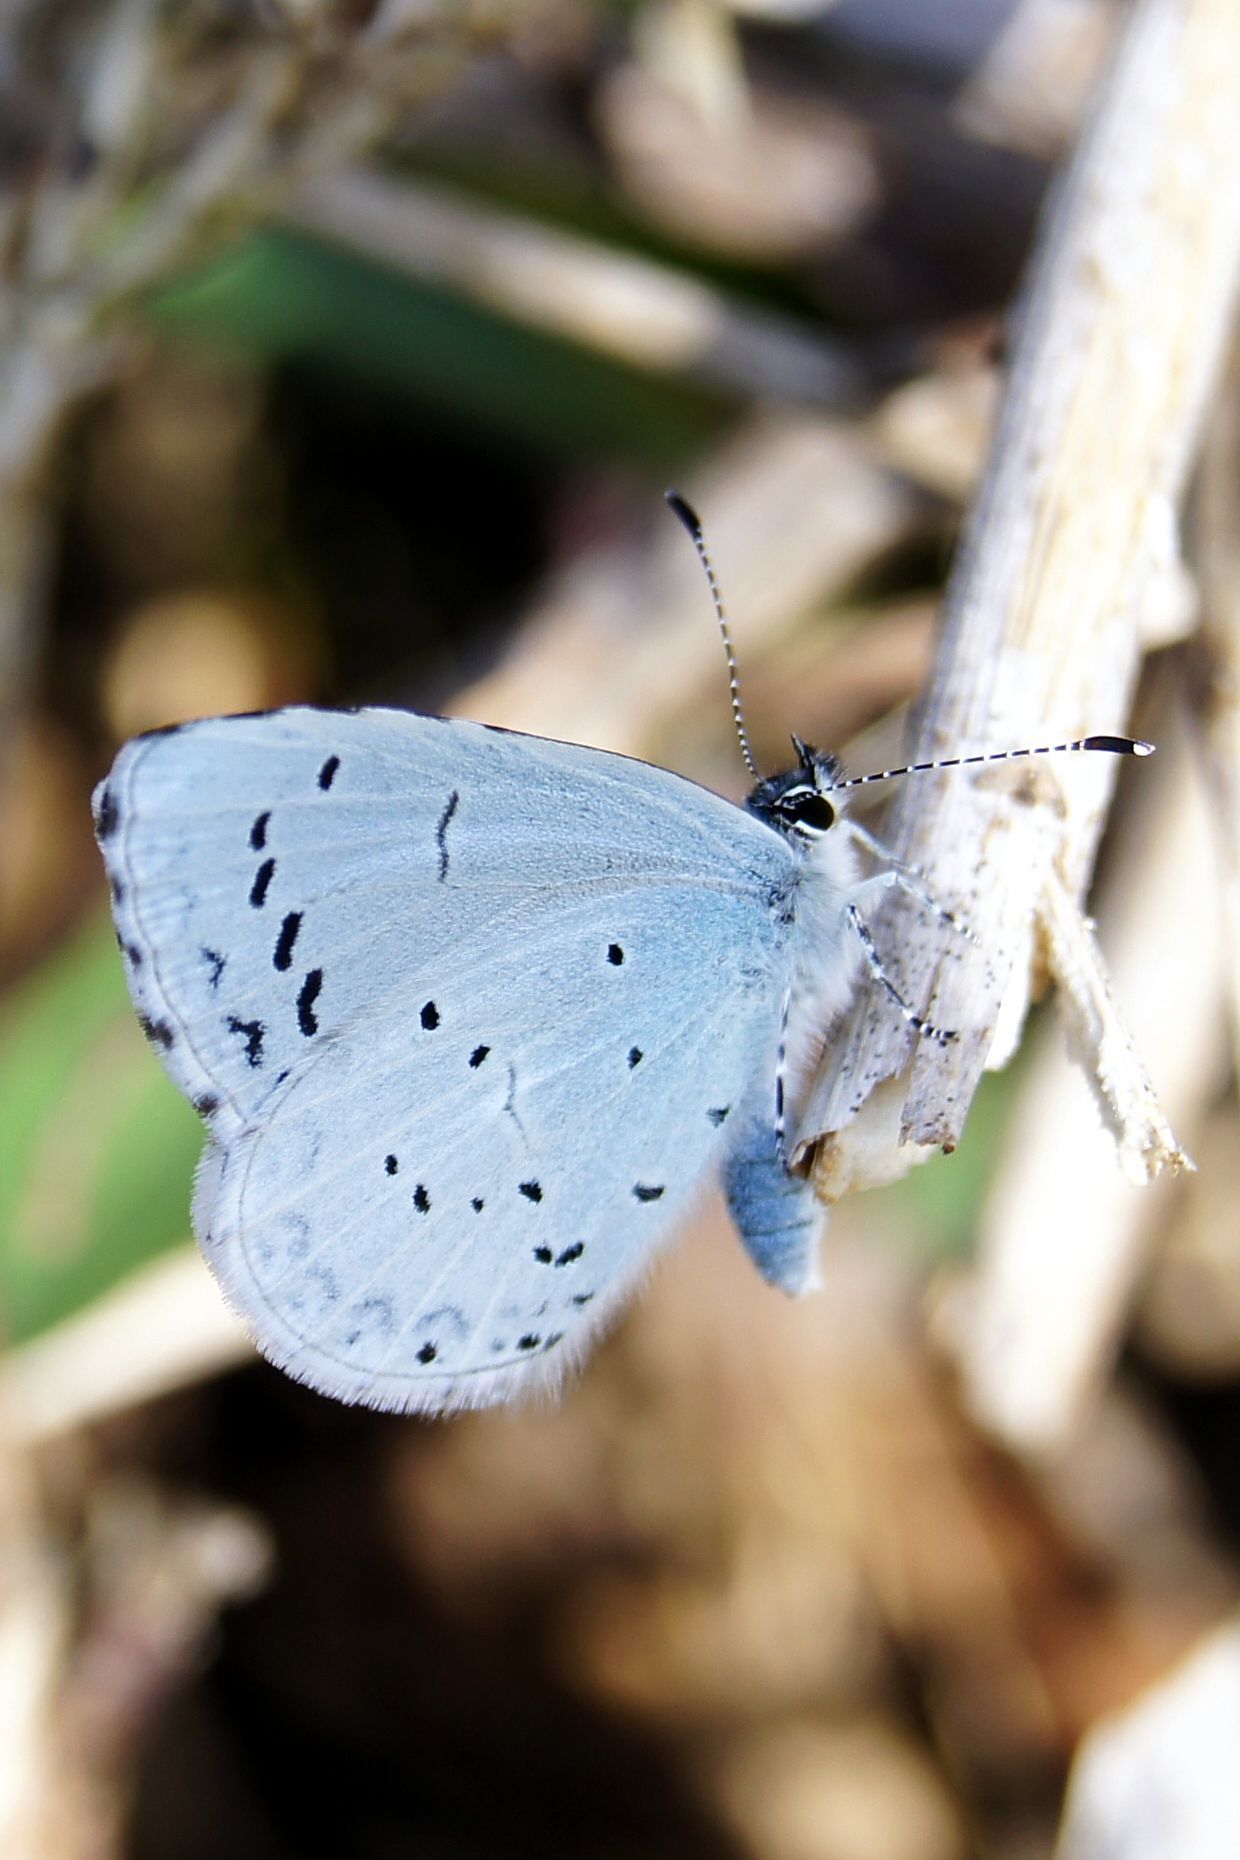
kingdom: Animalia
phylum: Arthropoda
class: Insecta
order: Lepidoptera
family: Lycaenidae
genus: Celastrina
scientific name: Celastrina argiolus
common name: Holly blue
